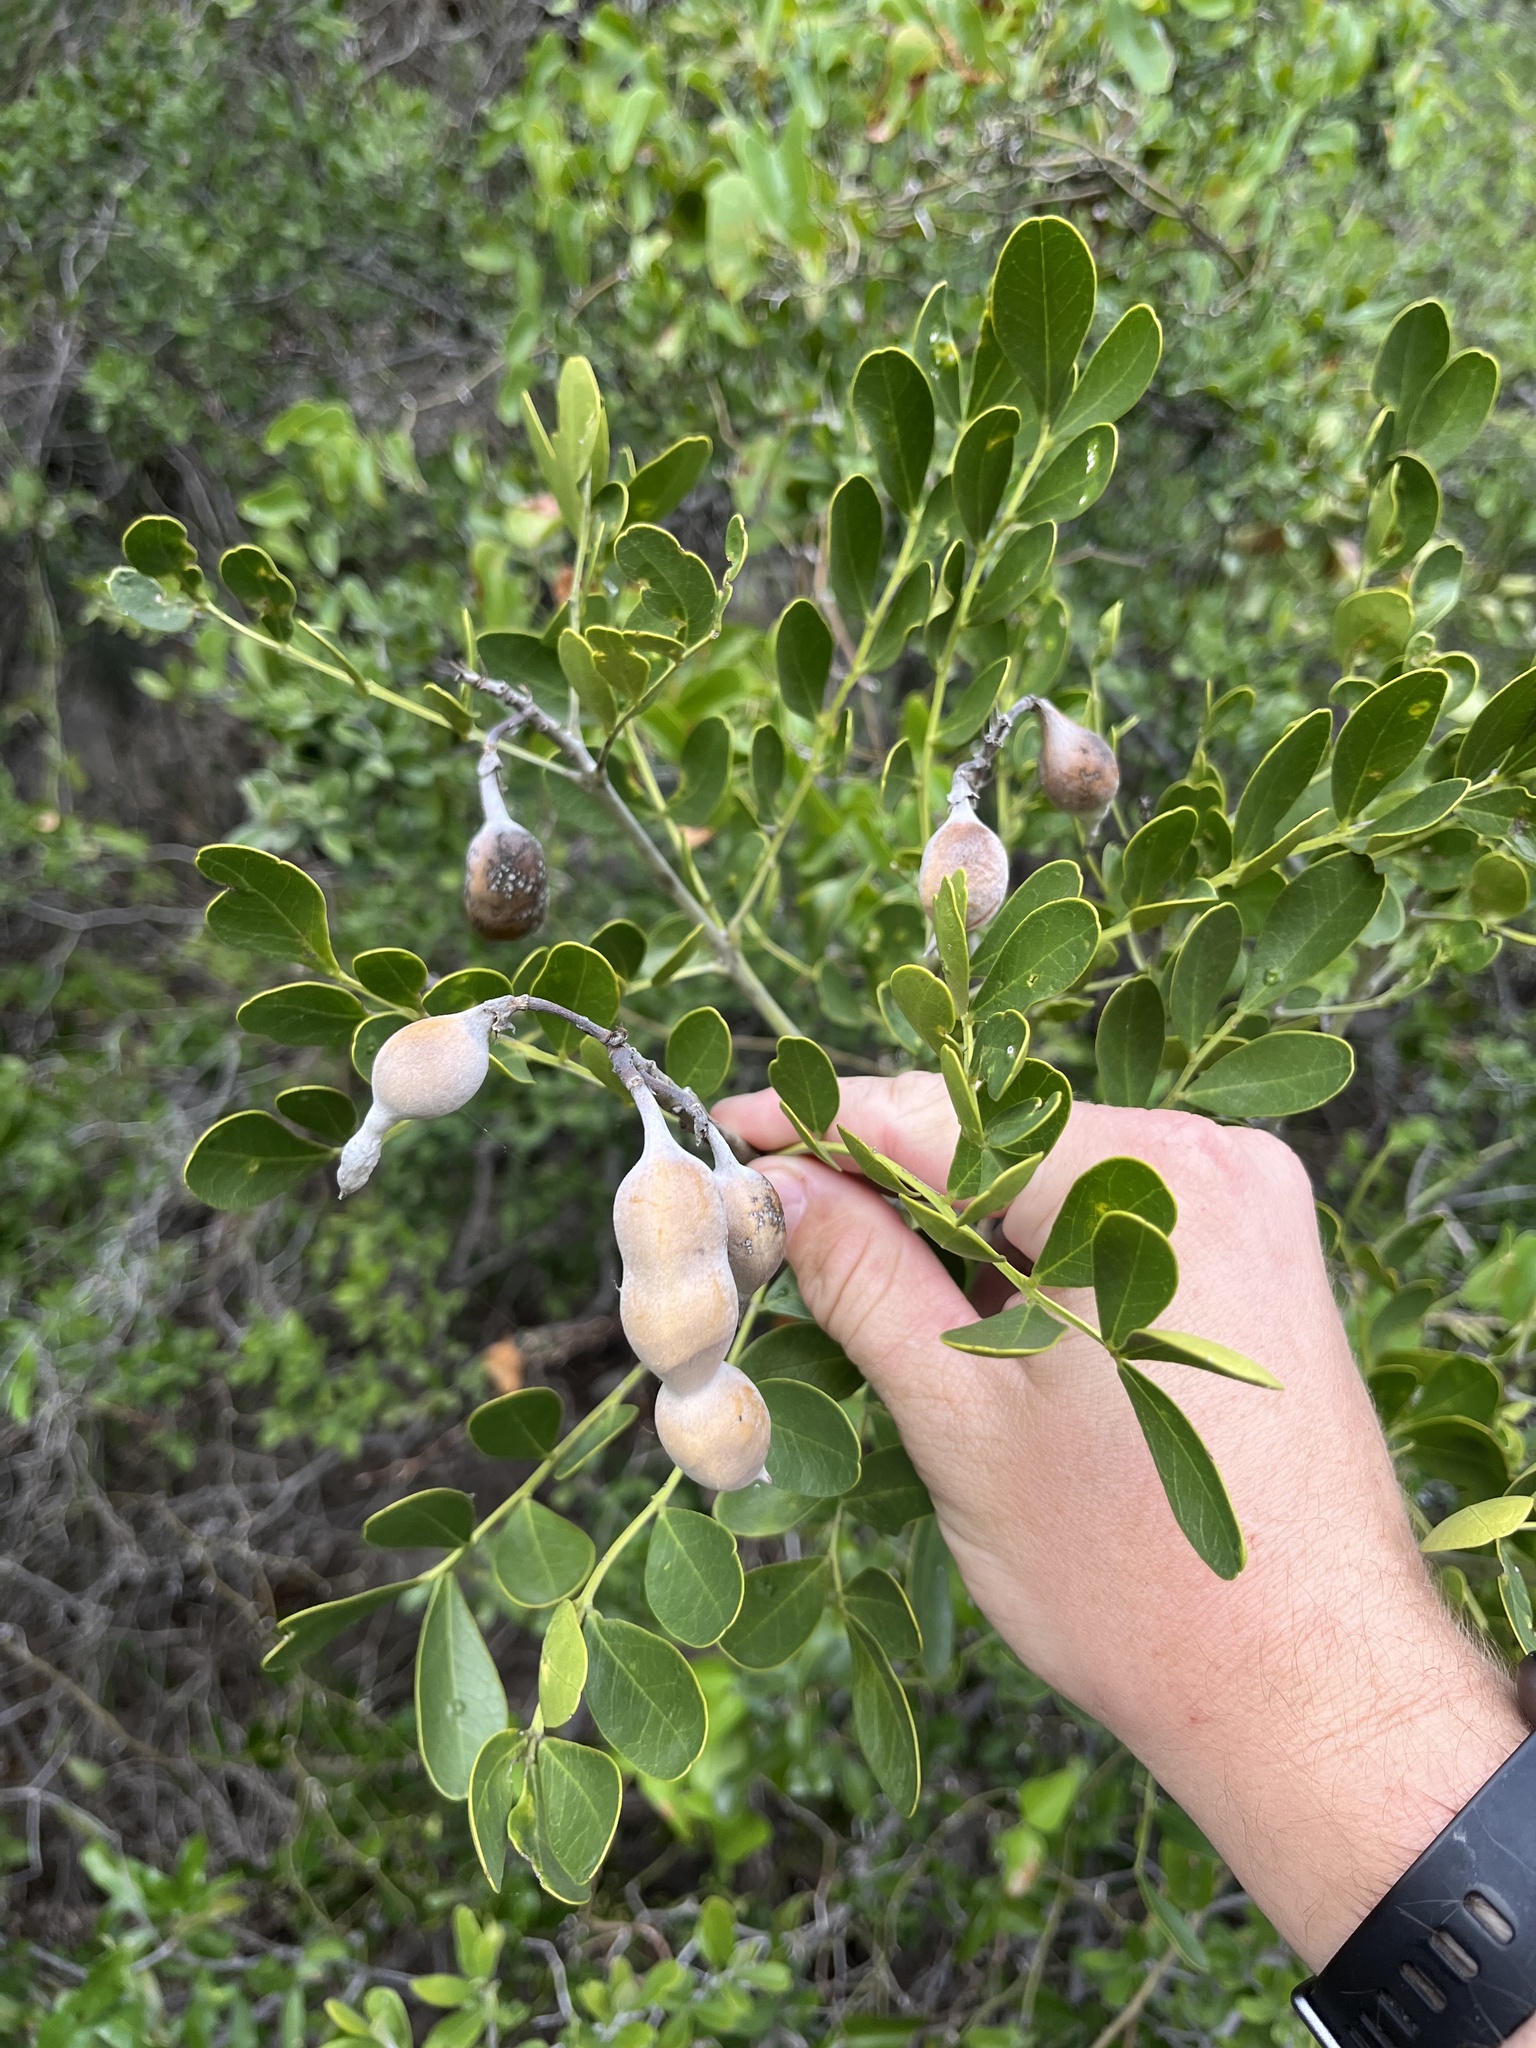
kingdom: Plantae
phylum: Tracheophyta
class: Magnoliopsida
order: Fabales
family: Fabaceae
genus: Dermatophyllum
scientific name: Dermatophyllum secundiflorum
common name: Texas-mountain-laurel
